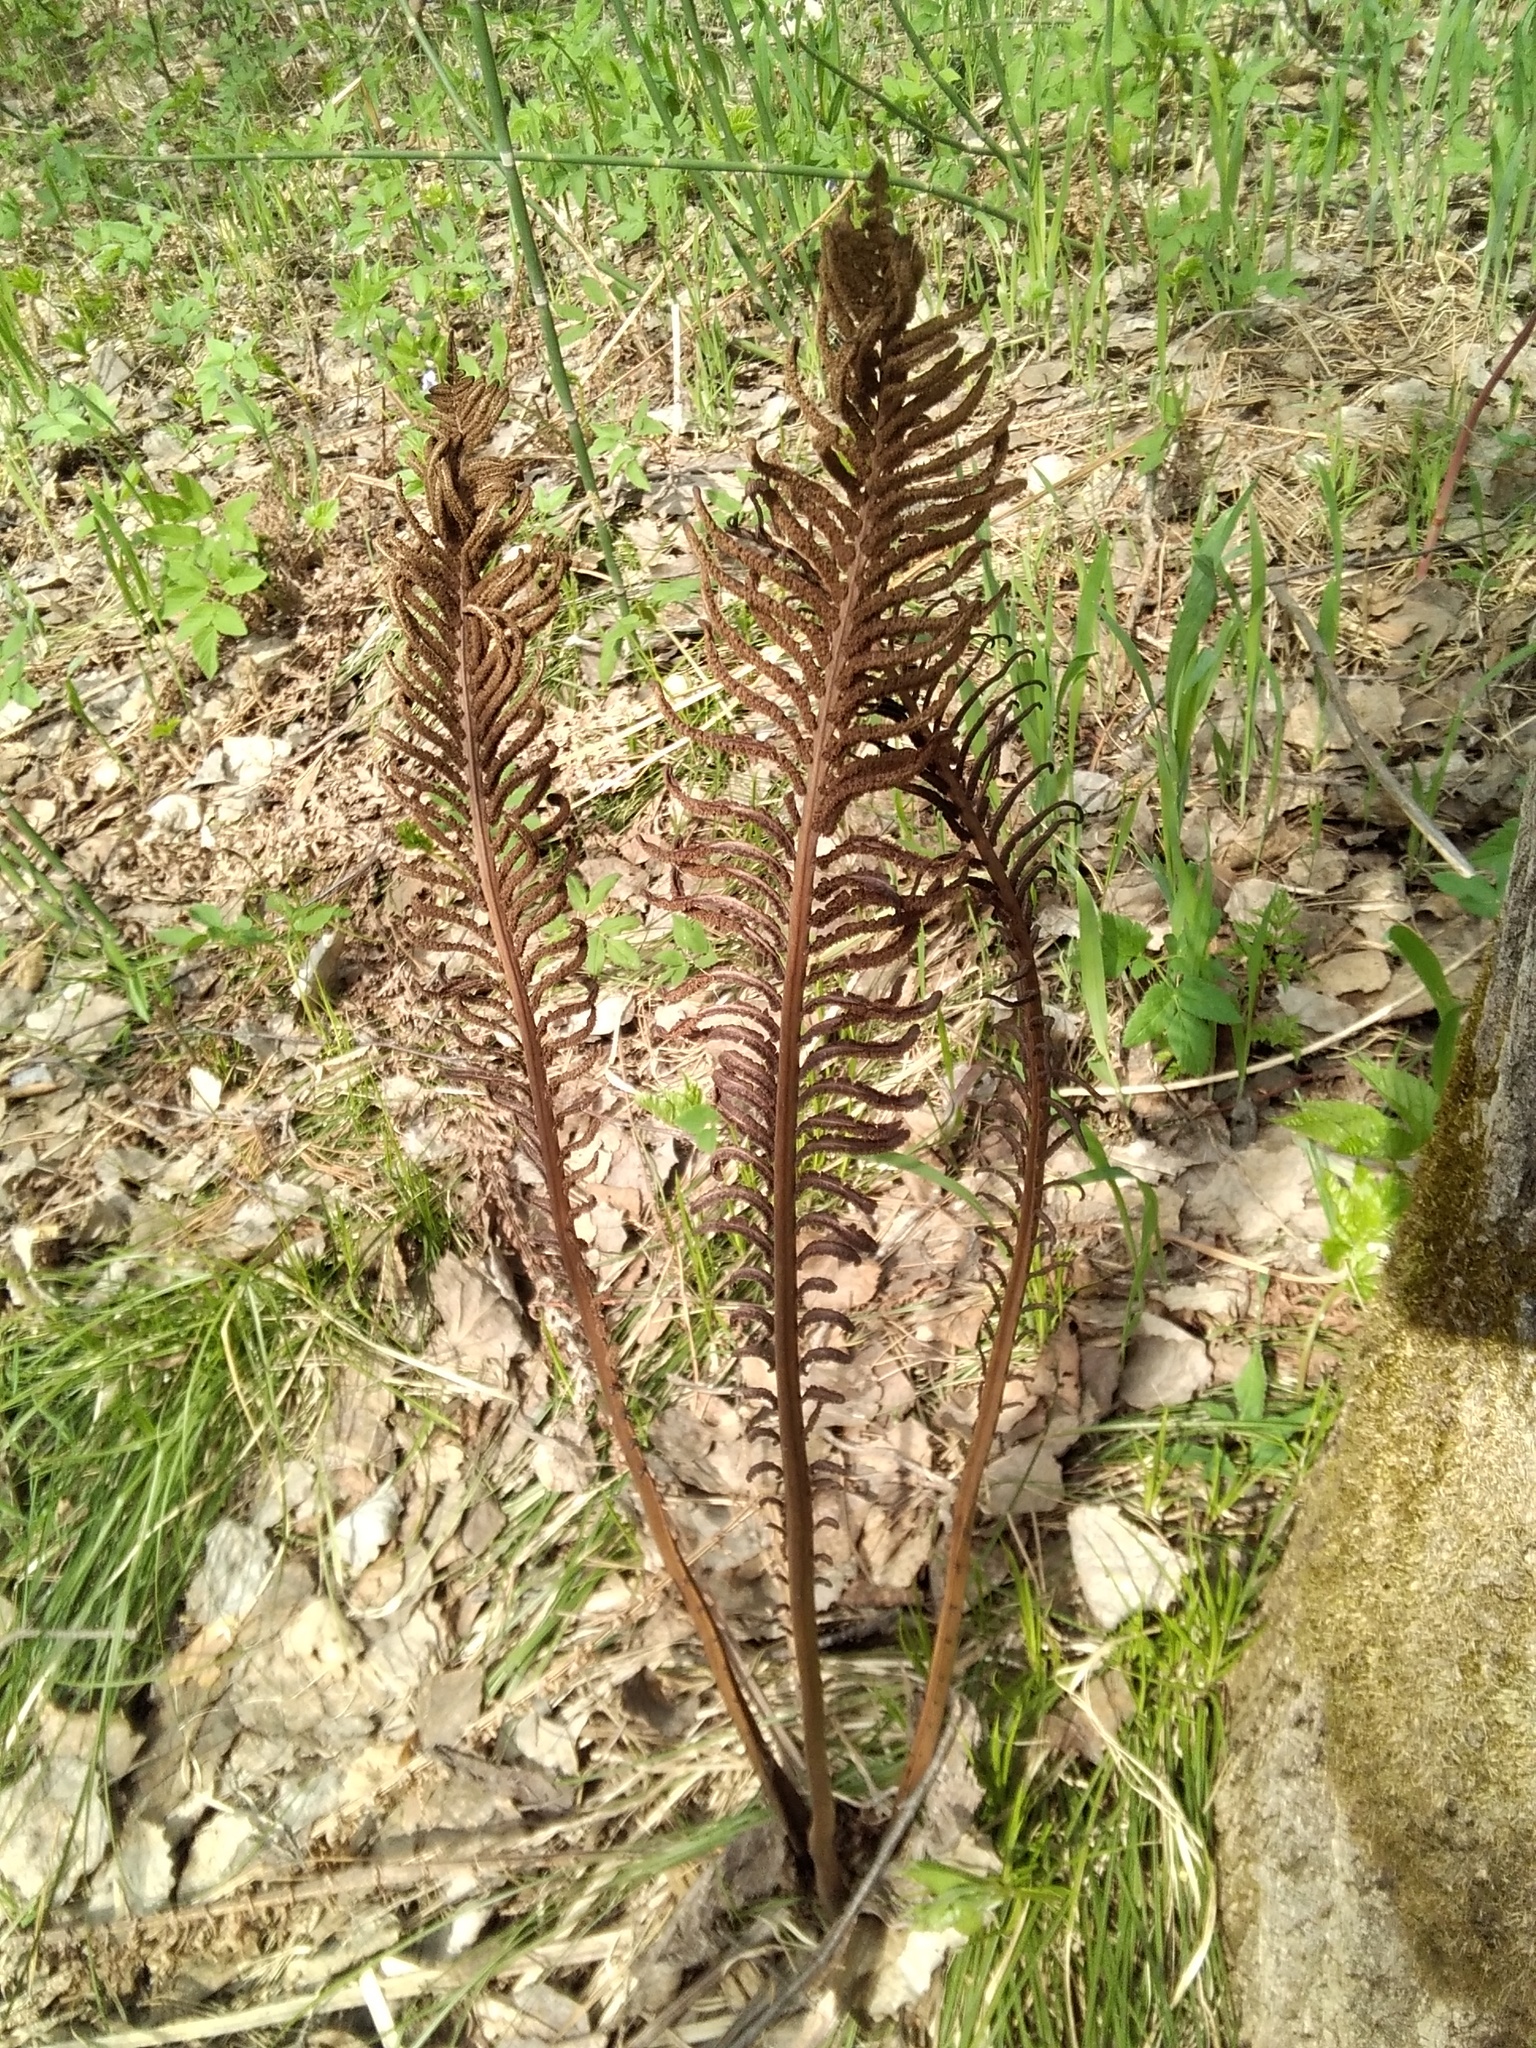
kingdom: Plantae
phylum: Tracheophyta
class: Polypodiopsida
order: Polypodiales
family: Onocleaceae
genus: Matteuccia
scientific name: Matteuccia struthiopteris
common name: Ostrich fern
